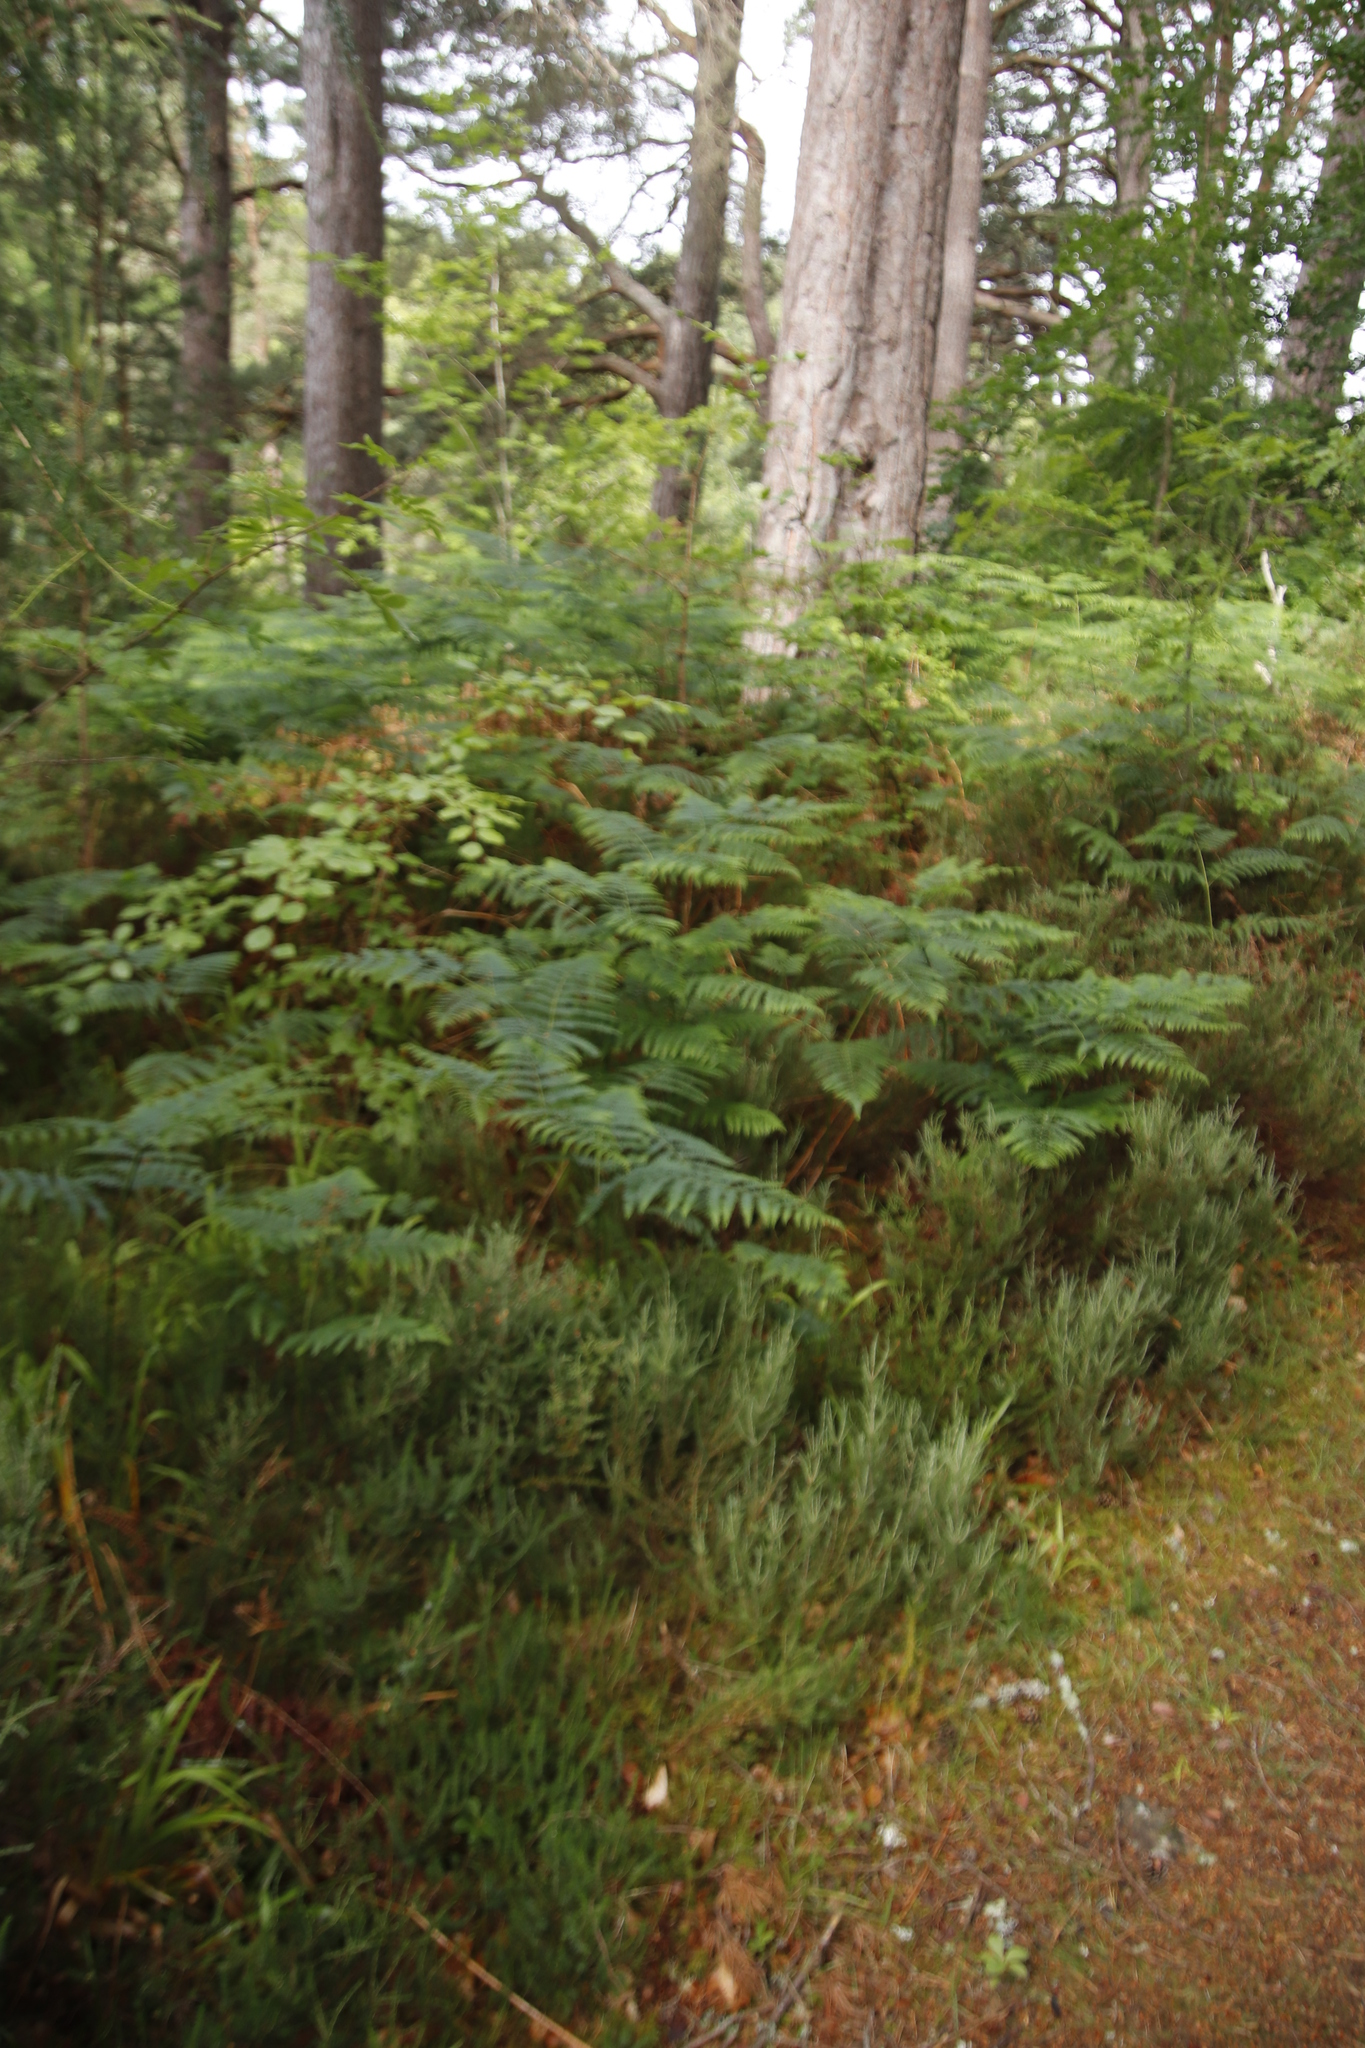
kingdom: Plantae
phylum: Tracheophyta
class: Polypodiopsida
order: Polypodiales
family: Dennstaedtiaceae
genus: Pteridium
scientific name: Pteridium aquilinum
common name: Bracken
